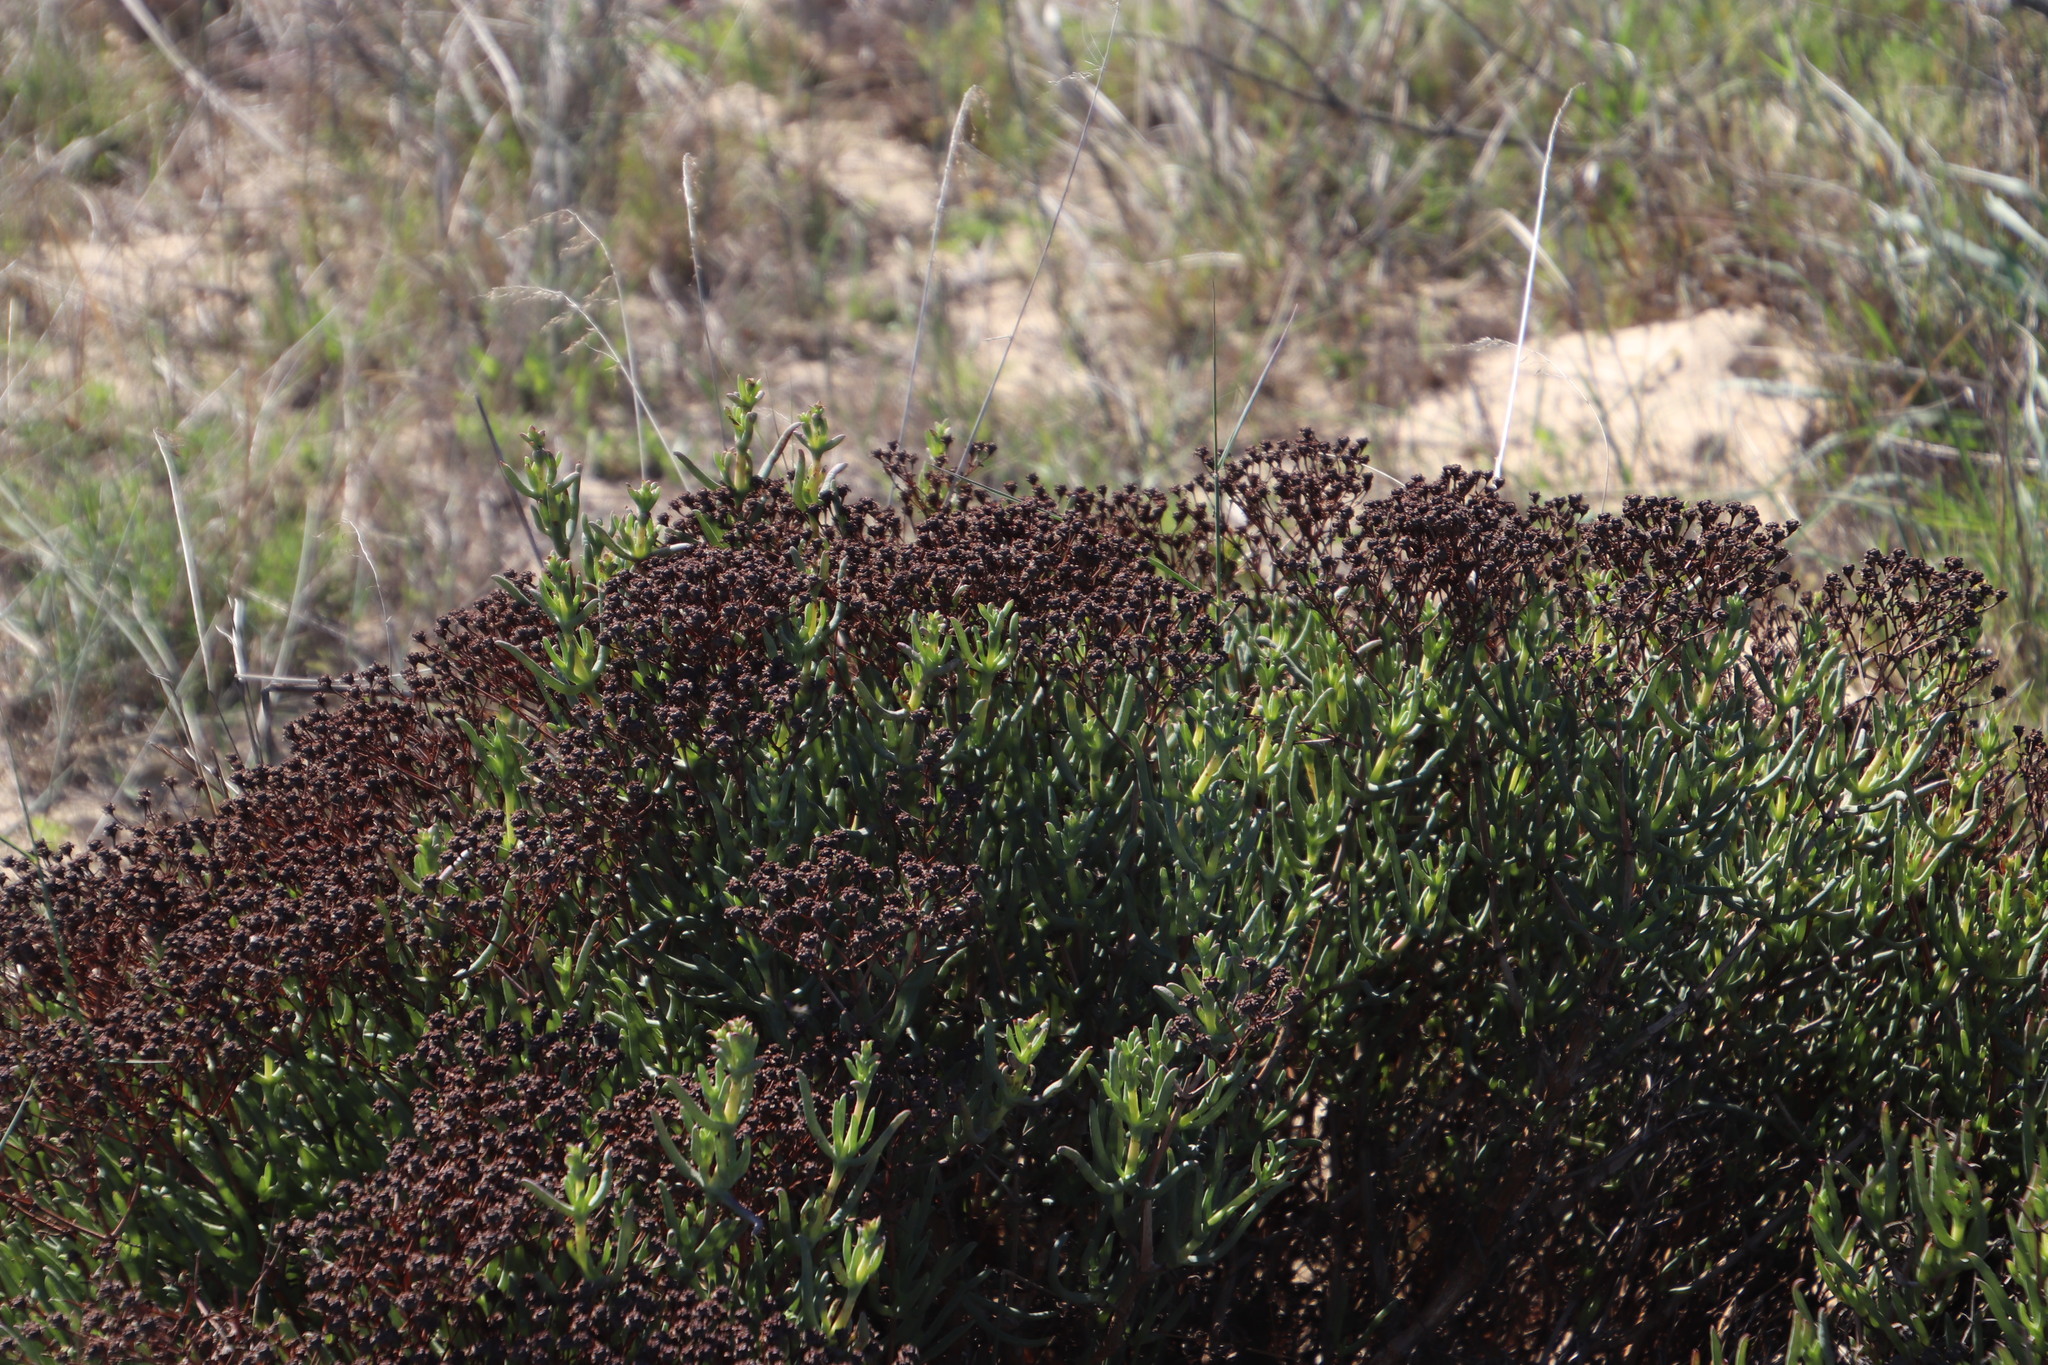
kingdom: Plantae
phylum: Tracheophyta
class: Magnoliopsida
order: Caryophyllales
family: Aizoaceae
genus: Ruschia
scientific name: Ruschia tumidula
